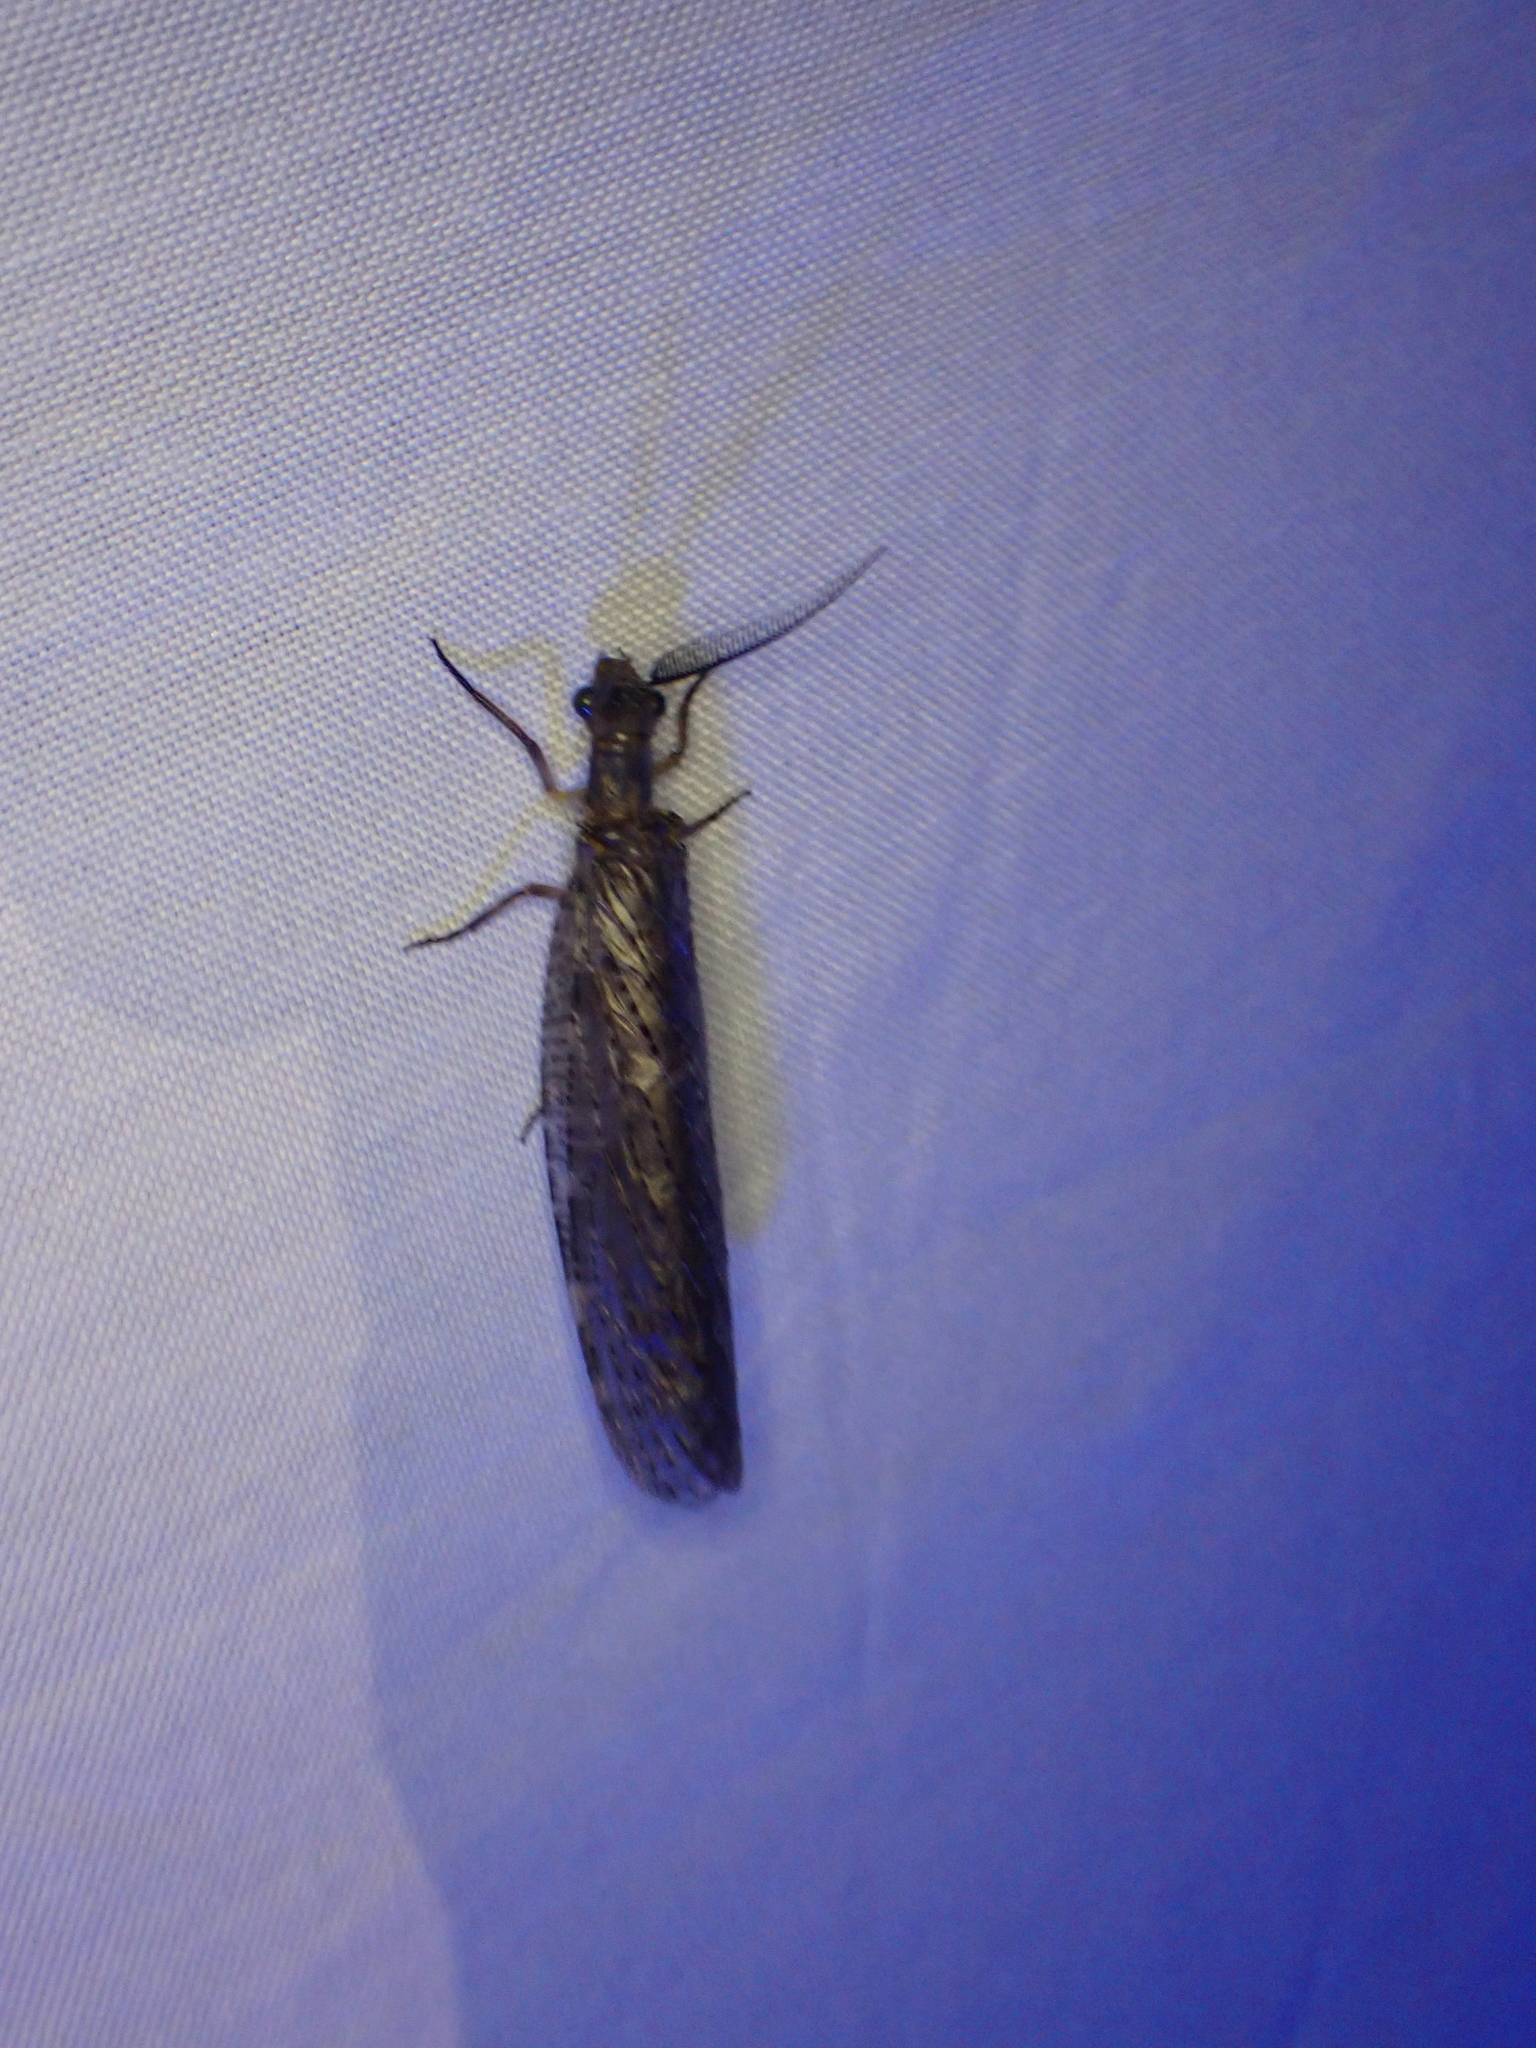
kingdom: Animalia
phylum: Arthropoda
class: Insecta
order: Megaloptera
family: Corydalidae
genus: Chauliodes
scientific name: Chauliodes pectinicornis
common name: Summer fishfly
